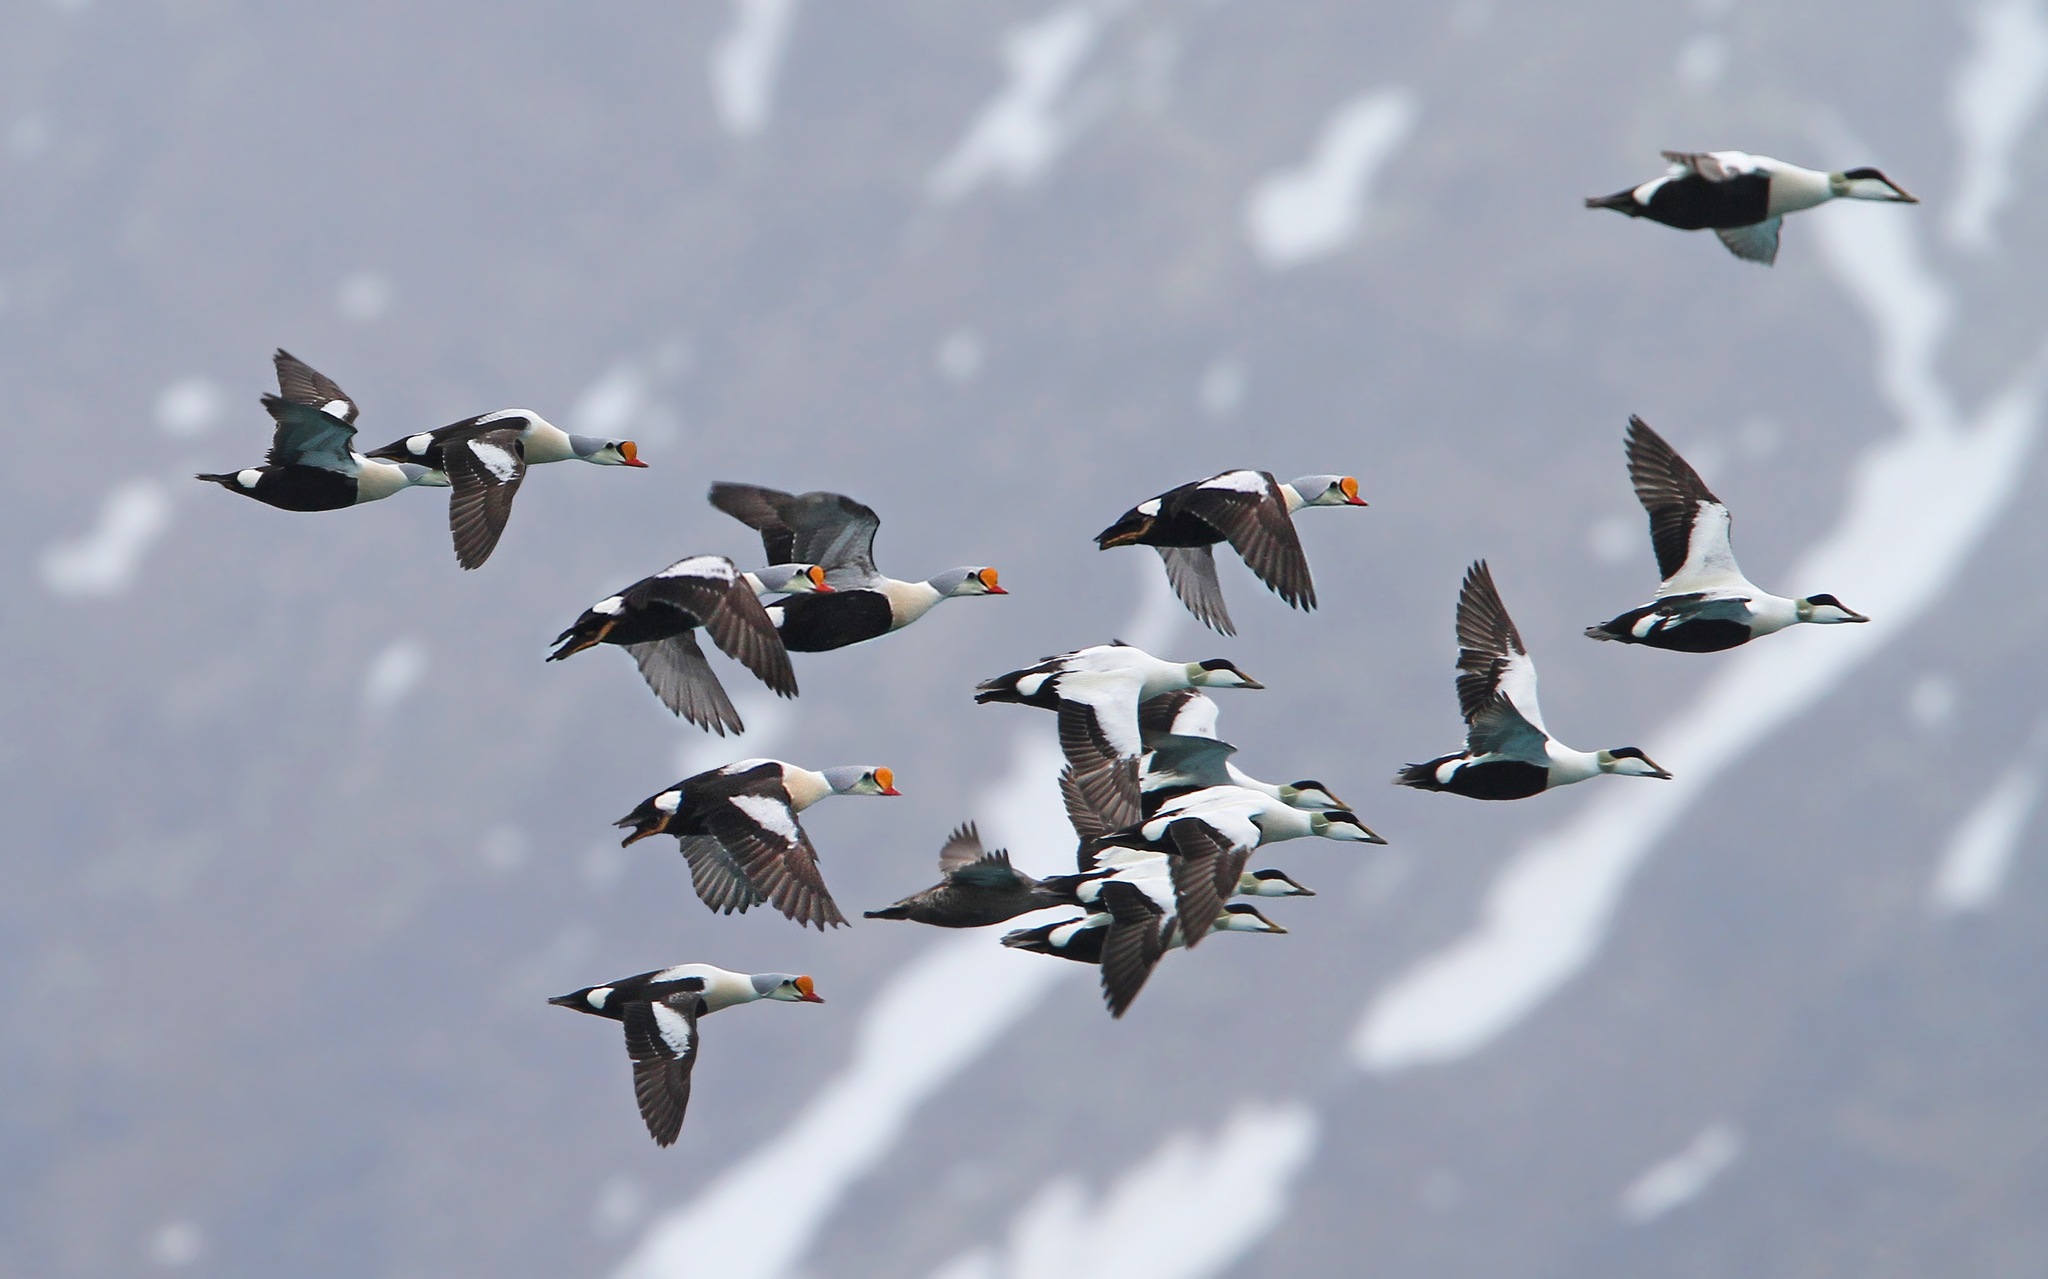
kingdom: Animalia
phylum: Chordata
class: Aves
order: Anseriformes
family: Anatidae
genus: Somateria
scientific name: Somateria spectabilis
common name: King eider
